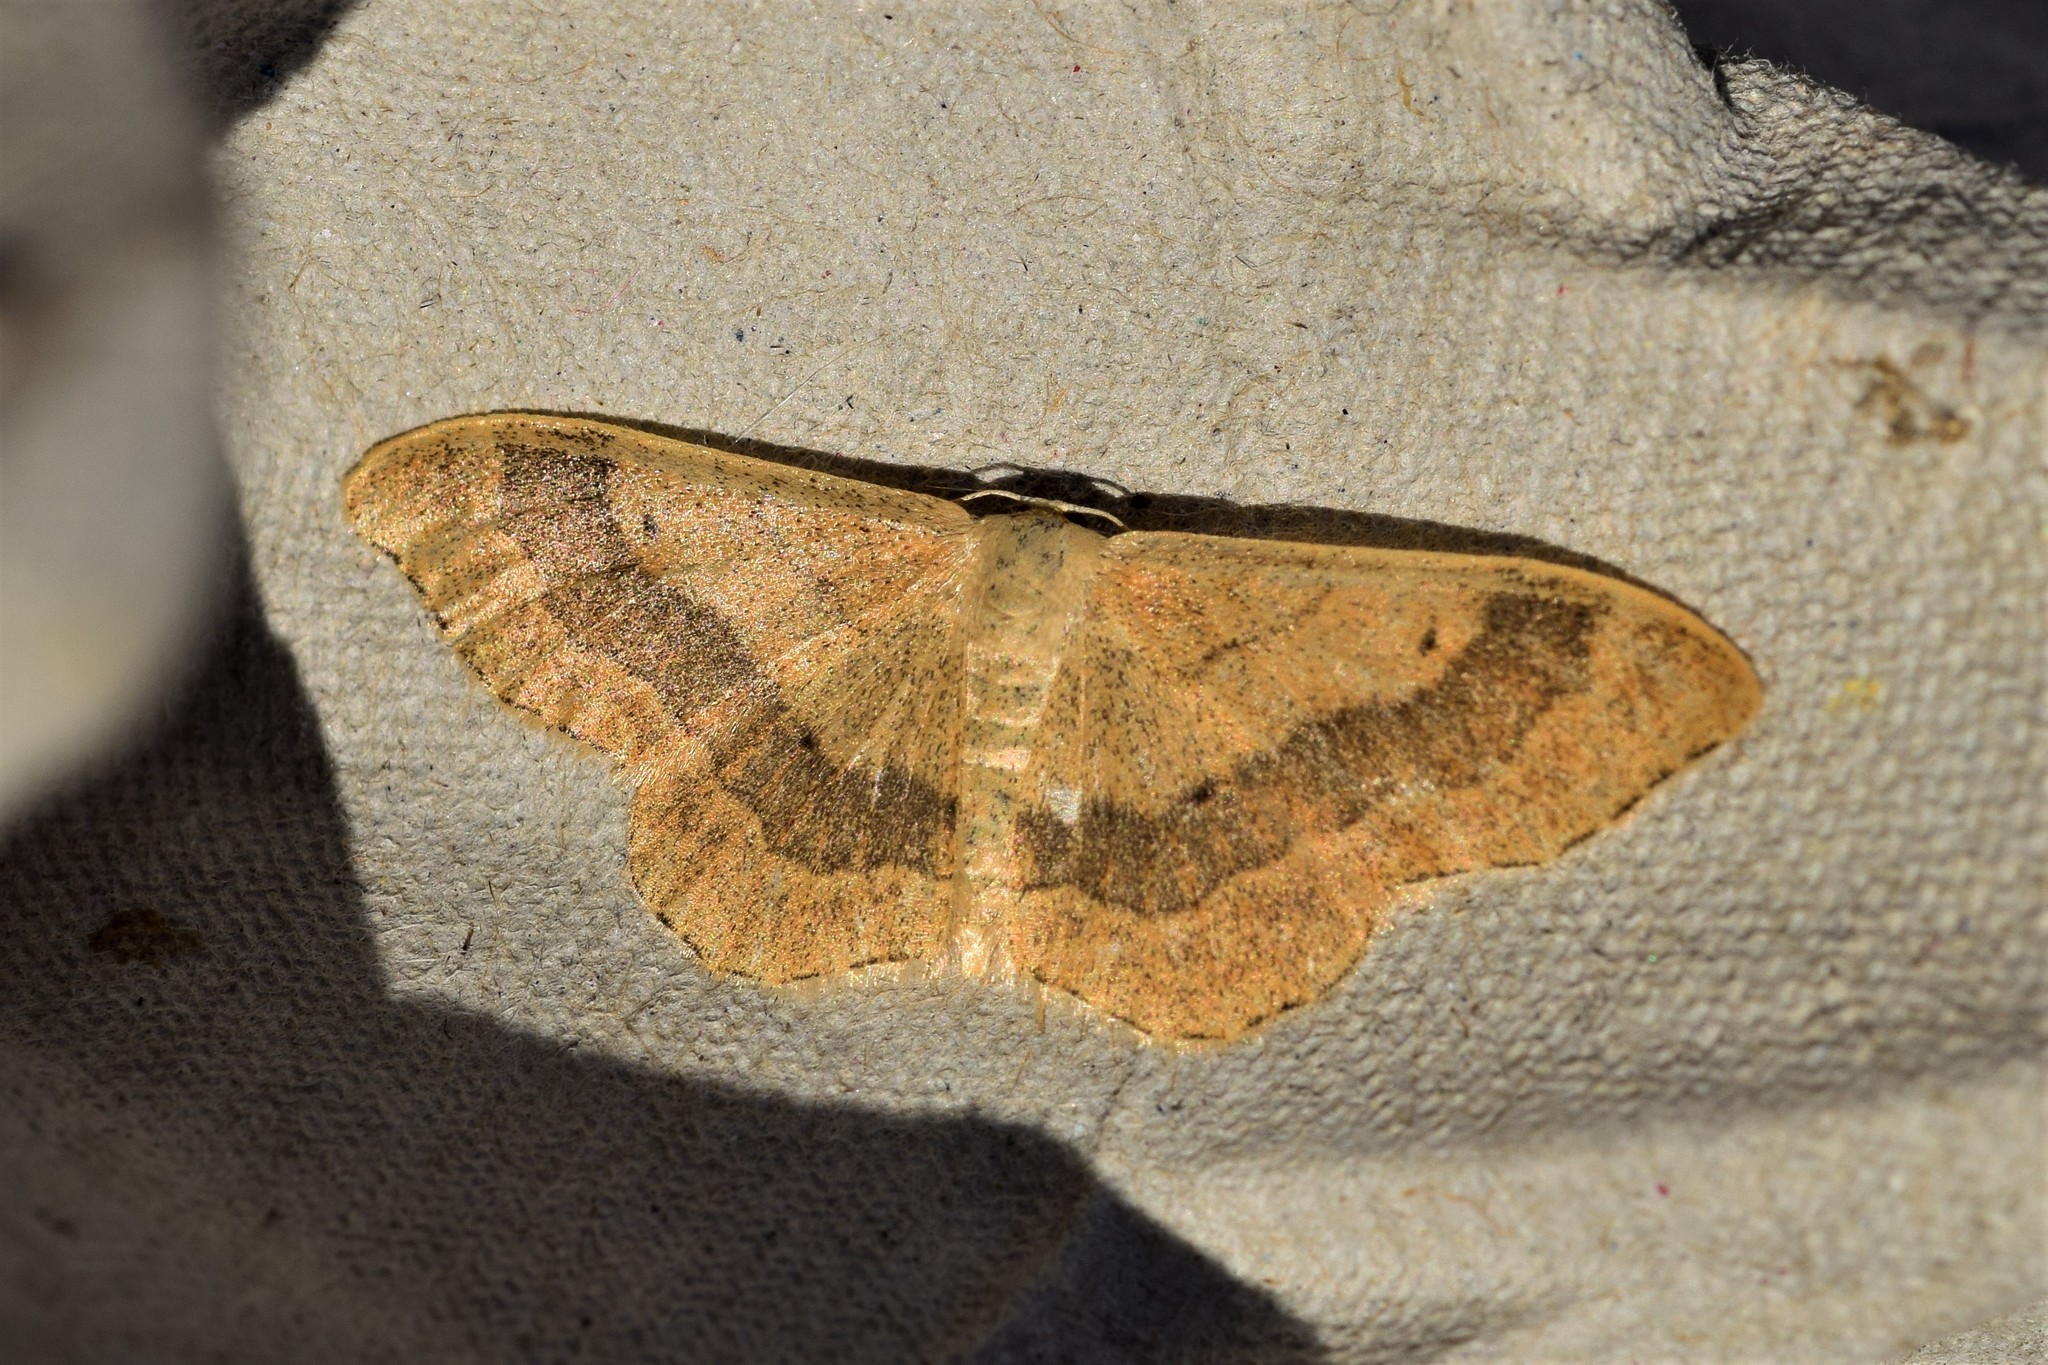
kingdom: Animalia
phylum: Arthropoda
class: Insecta
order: Lepidoptera
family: Geometridae
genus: Idaea
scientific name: Idaea aversata
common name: Riband wave
